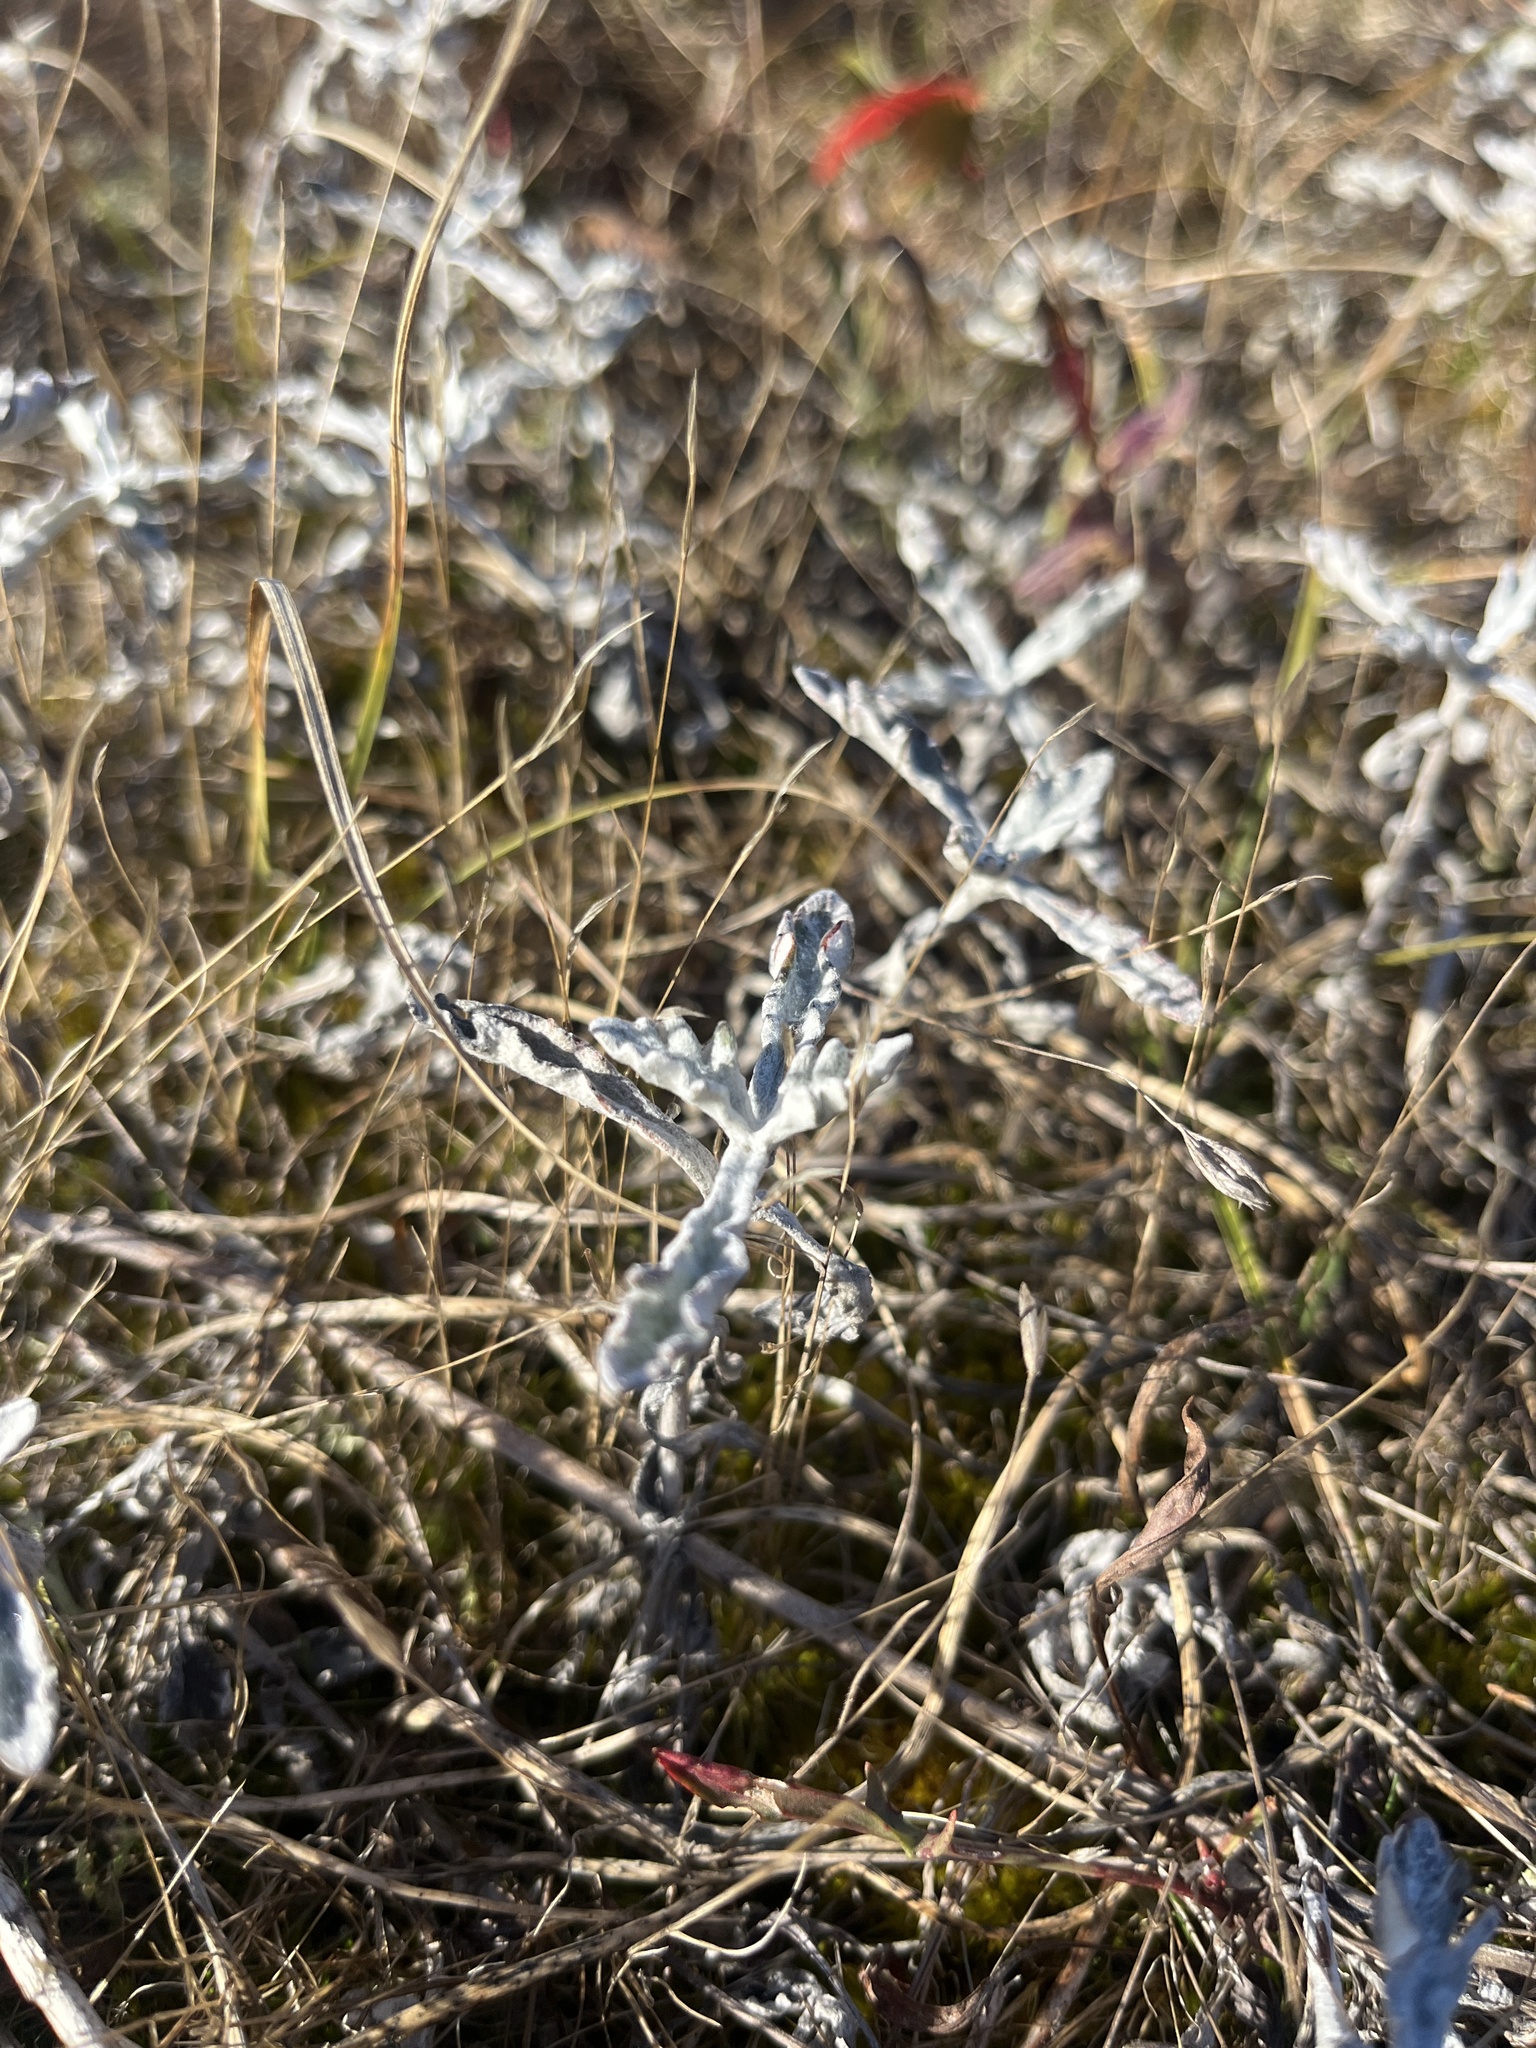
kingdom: Plantae
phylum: Tracheophyta
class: Magnoliopsida
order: Asterales
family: Asteraceae
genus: Eriophyllum
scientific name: Eriophyllum lanatum
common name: Common woolly-sunflower
